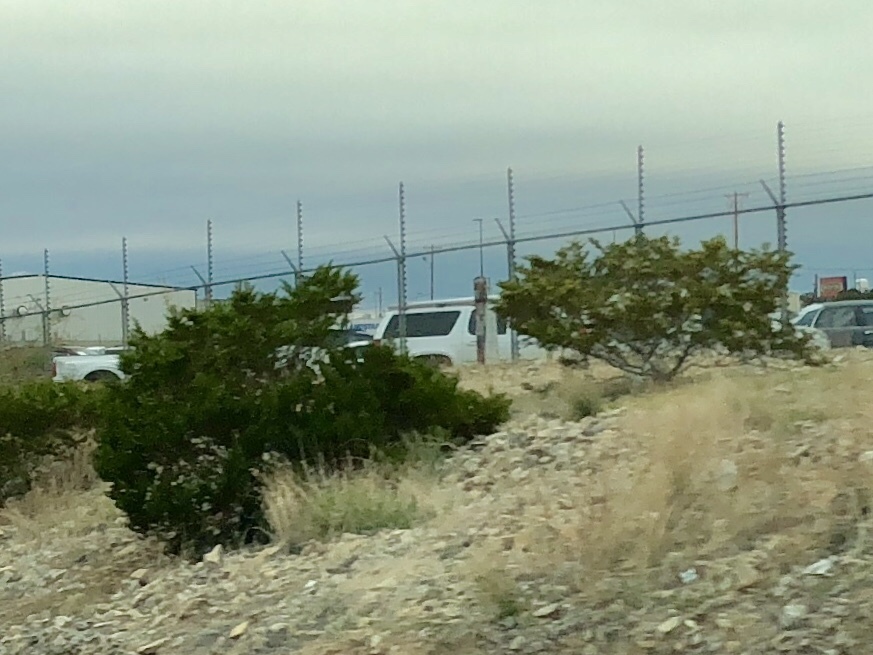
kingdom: Plantae
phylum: Tracheophyta
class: Magnoliopsida
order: Zygophyllales
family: Zygophyllaceae
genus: Larrea
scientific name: Larrea tridentata
